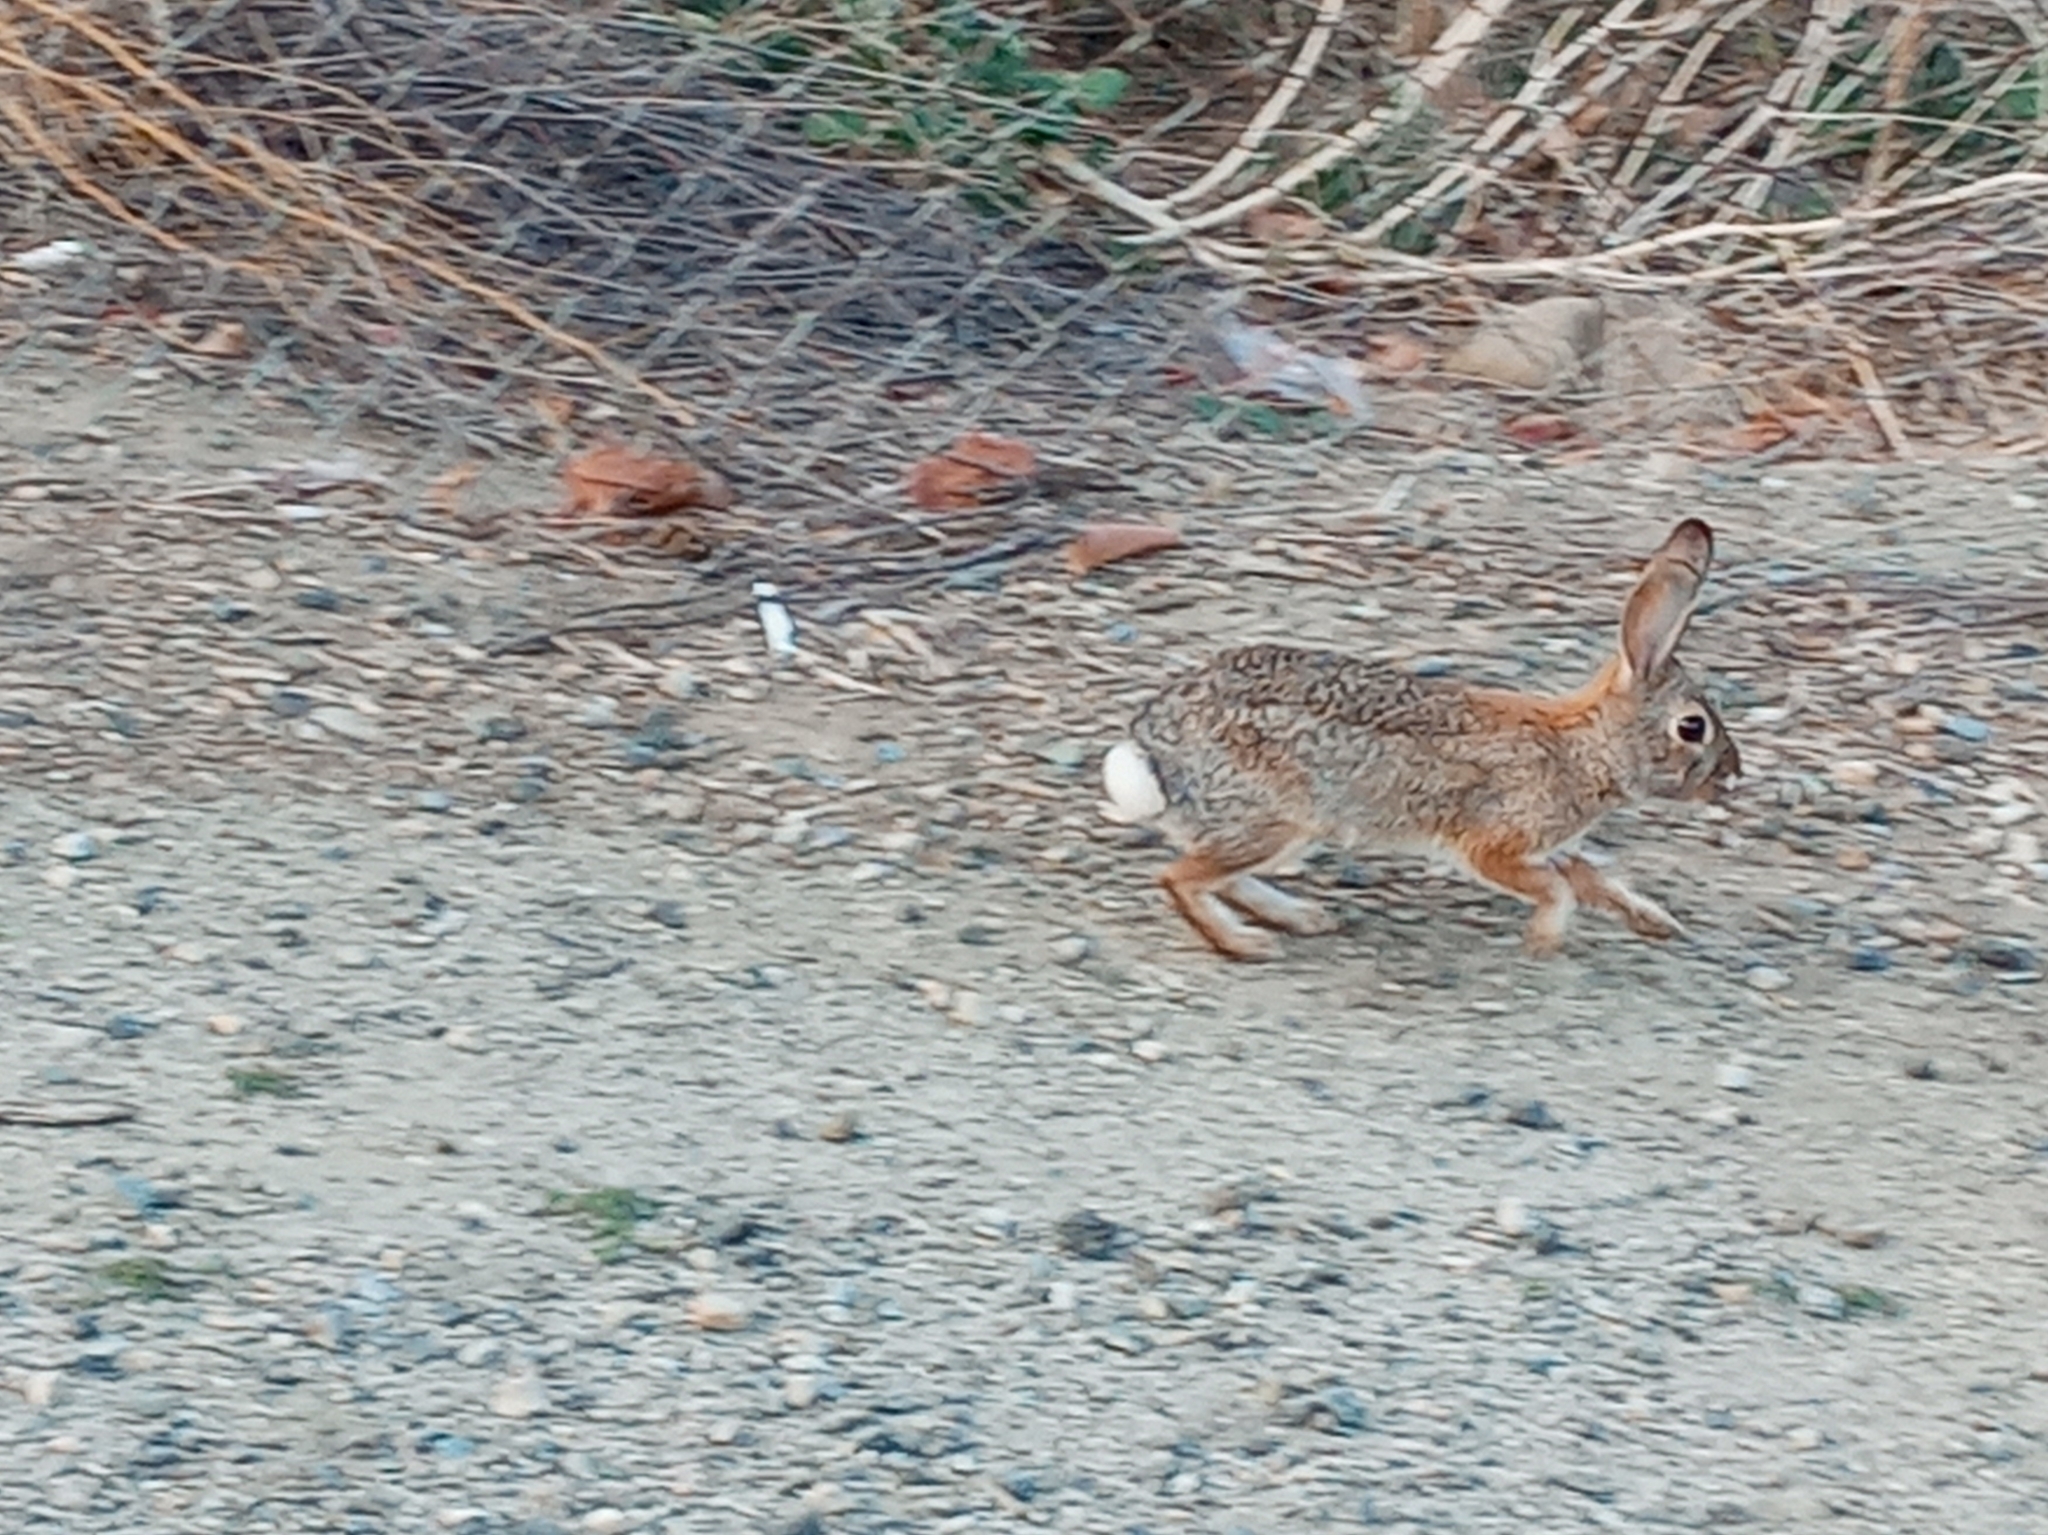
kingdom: Animalia
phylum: Chordata
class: Mammalia
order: Lagomorpha
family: Leporidae
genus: Sylvilagus
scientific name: Sylvilagus audubonii
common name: Desert cottontail
